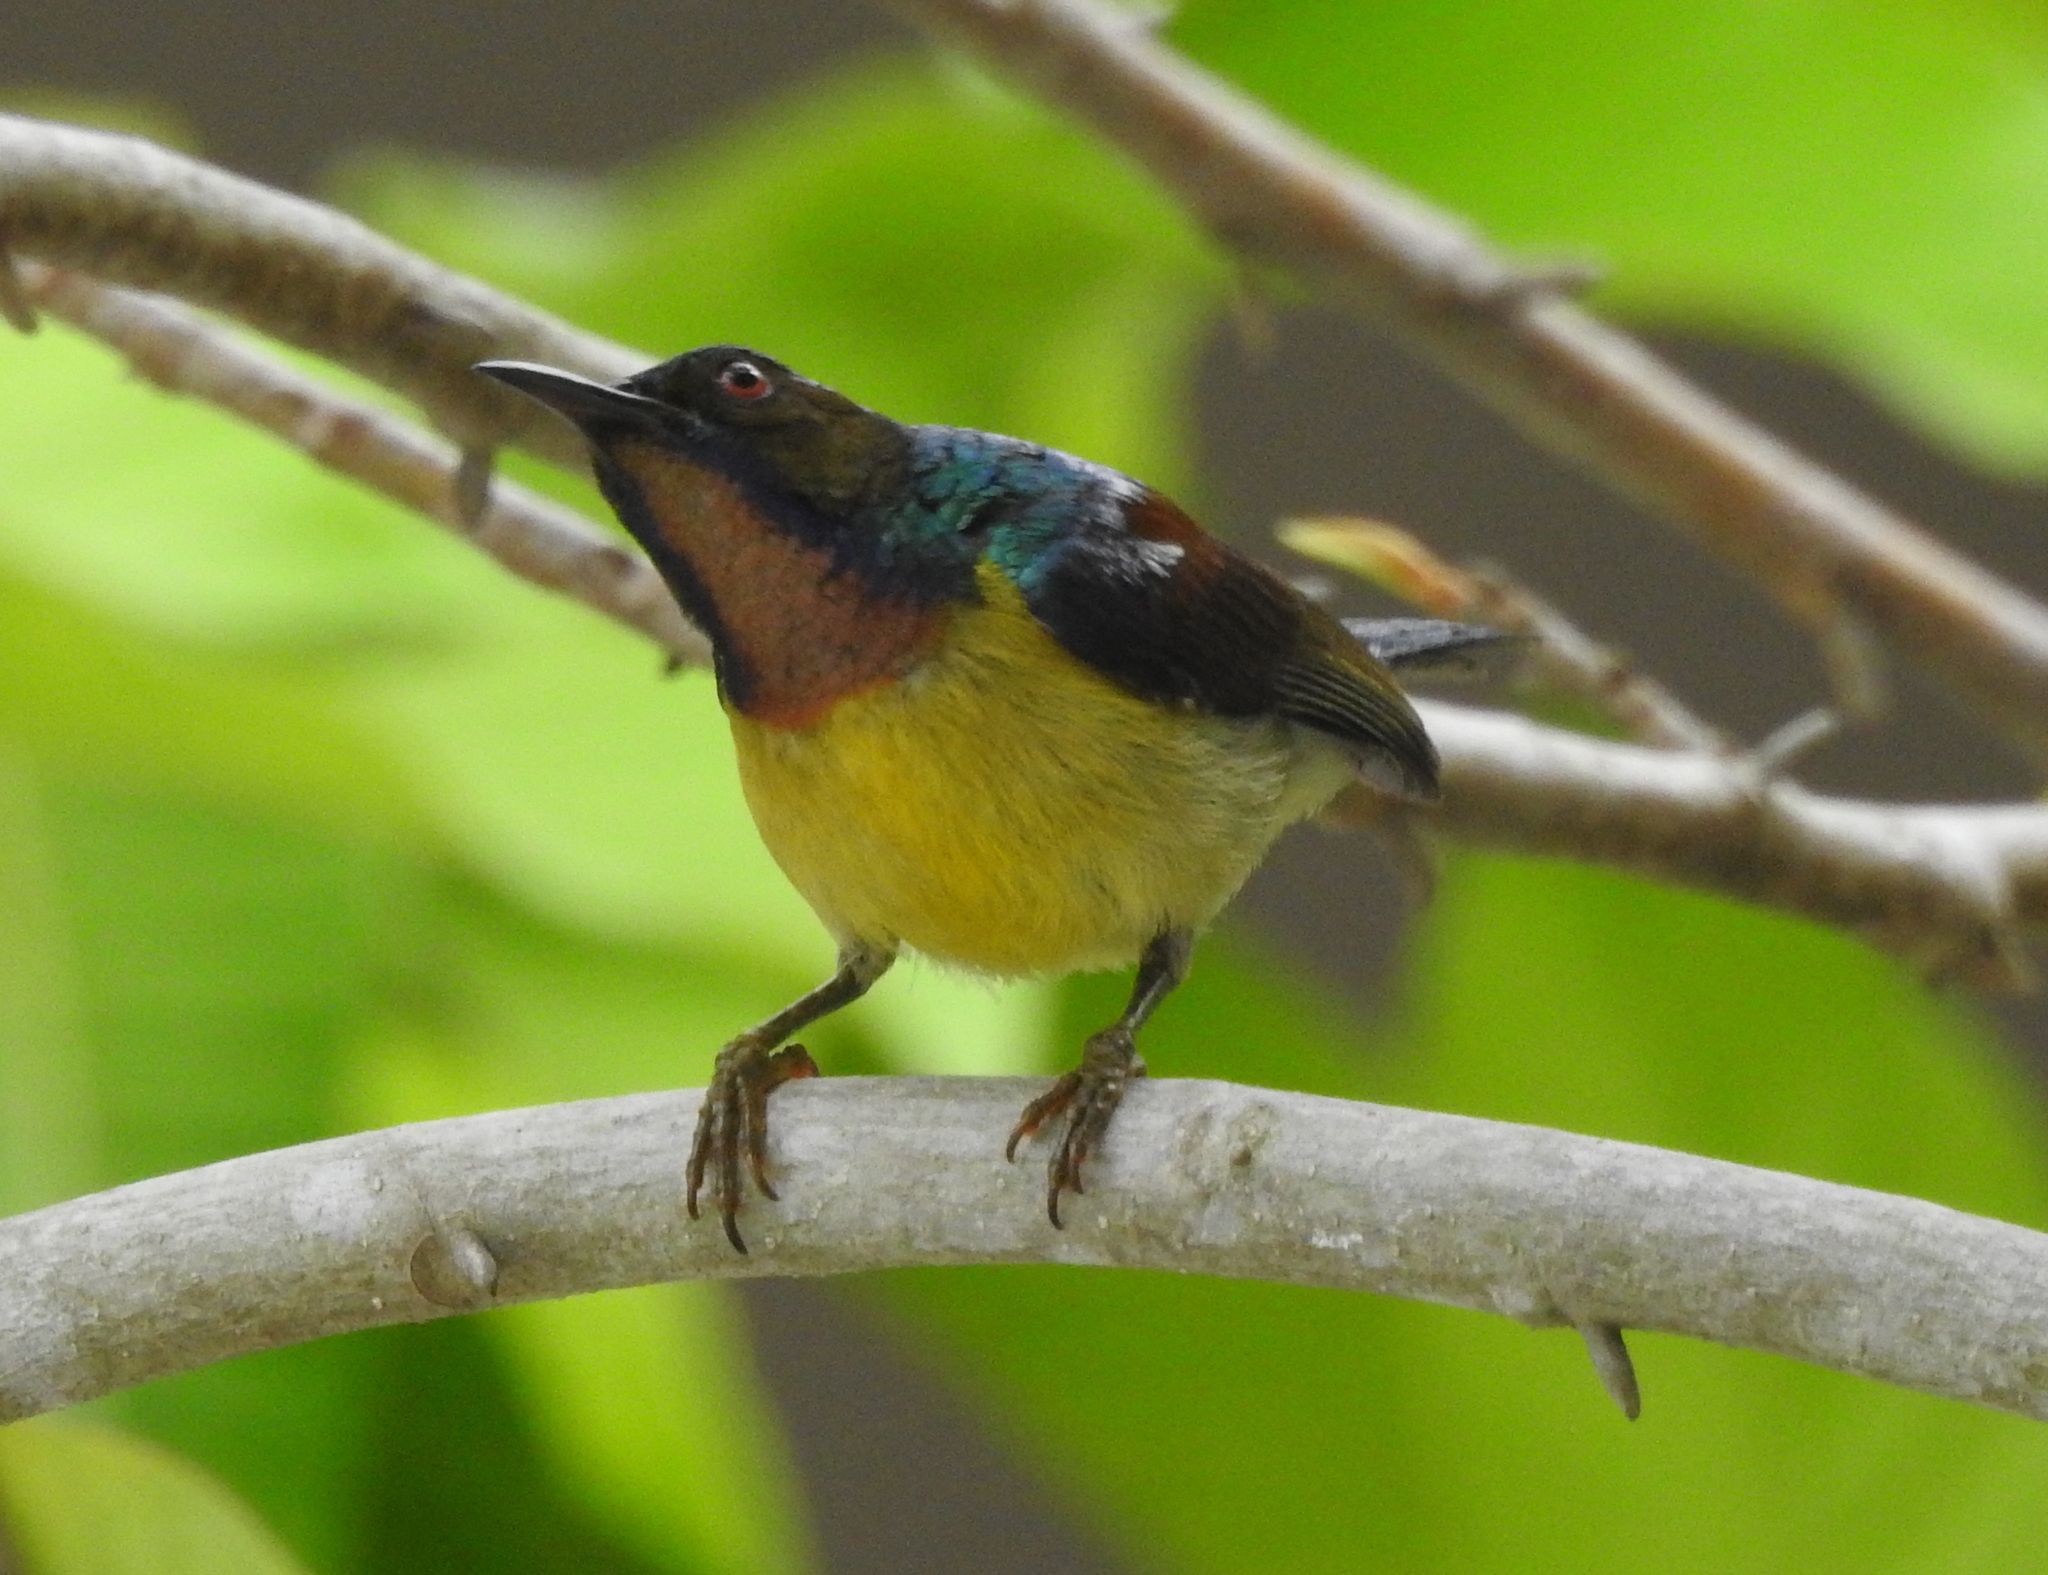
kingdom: Animalia
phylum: Chordata
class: Aves
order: Passeriformes
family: Nectariniidae
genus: Anthreptes
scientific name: Anthreptes malacensis
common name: Brown-throated sunbird
